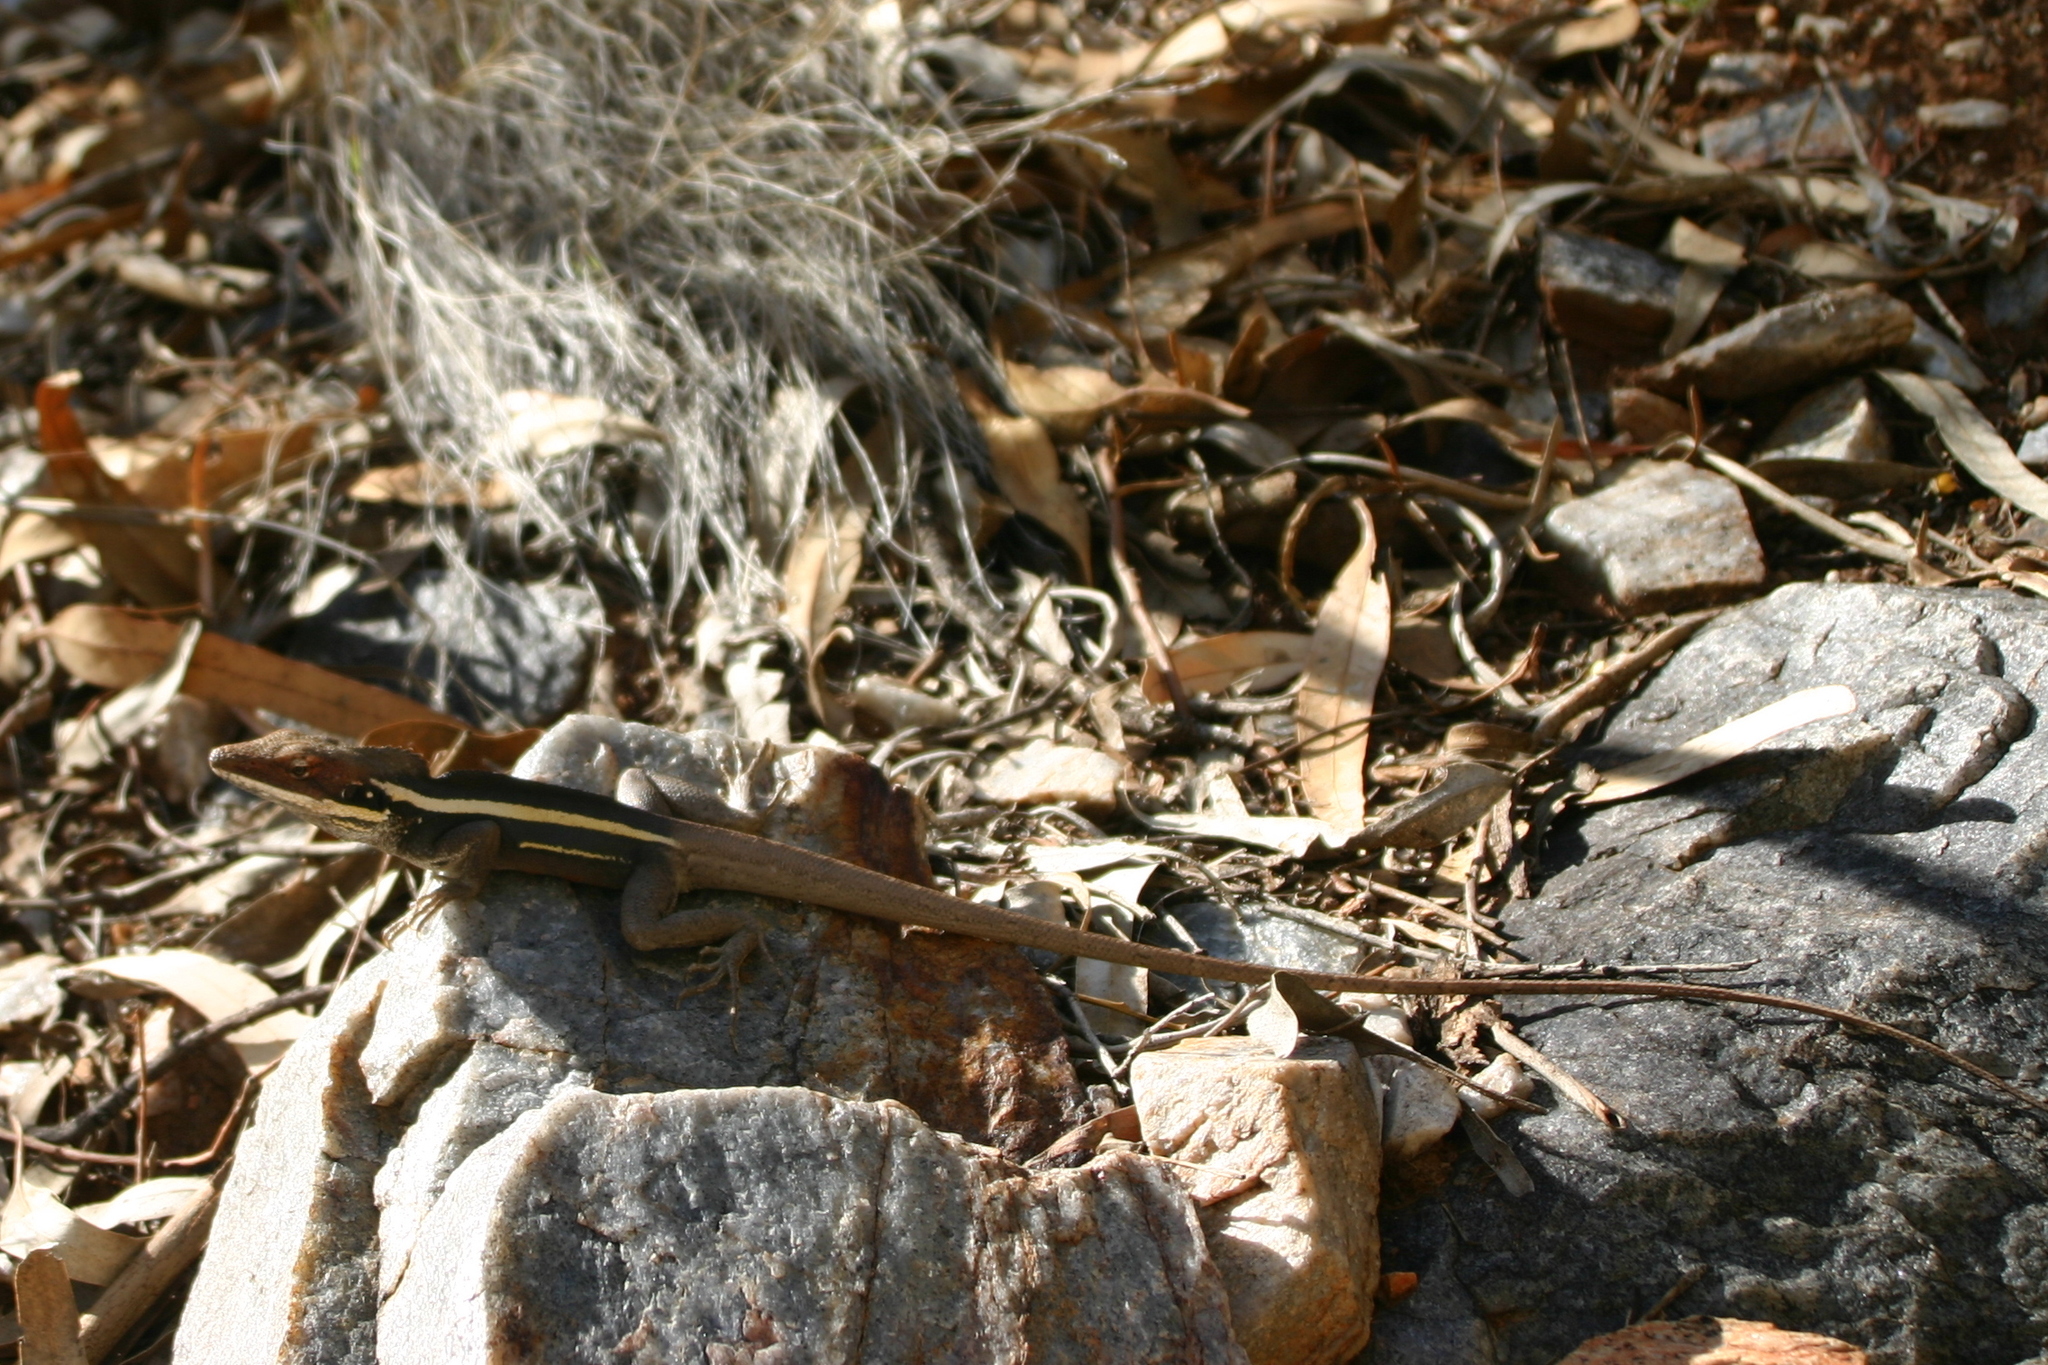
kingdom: Animalia
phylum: Chordata
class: Squamata
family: Agamidae
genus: Gowidon
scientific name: Gowidon longirostris
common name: Long-nosed water dragon
